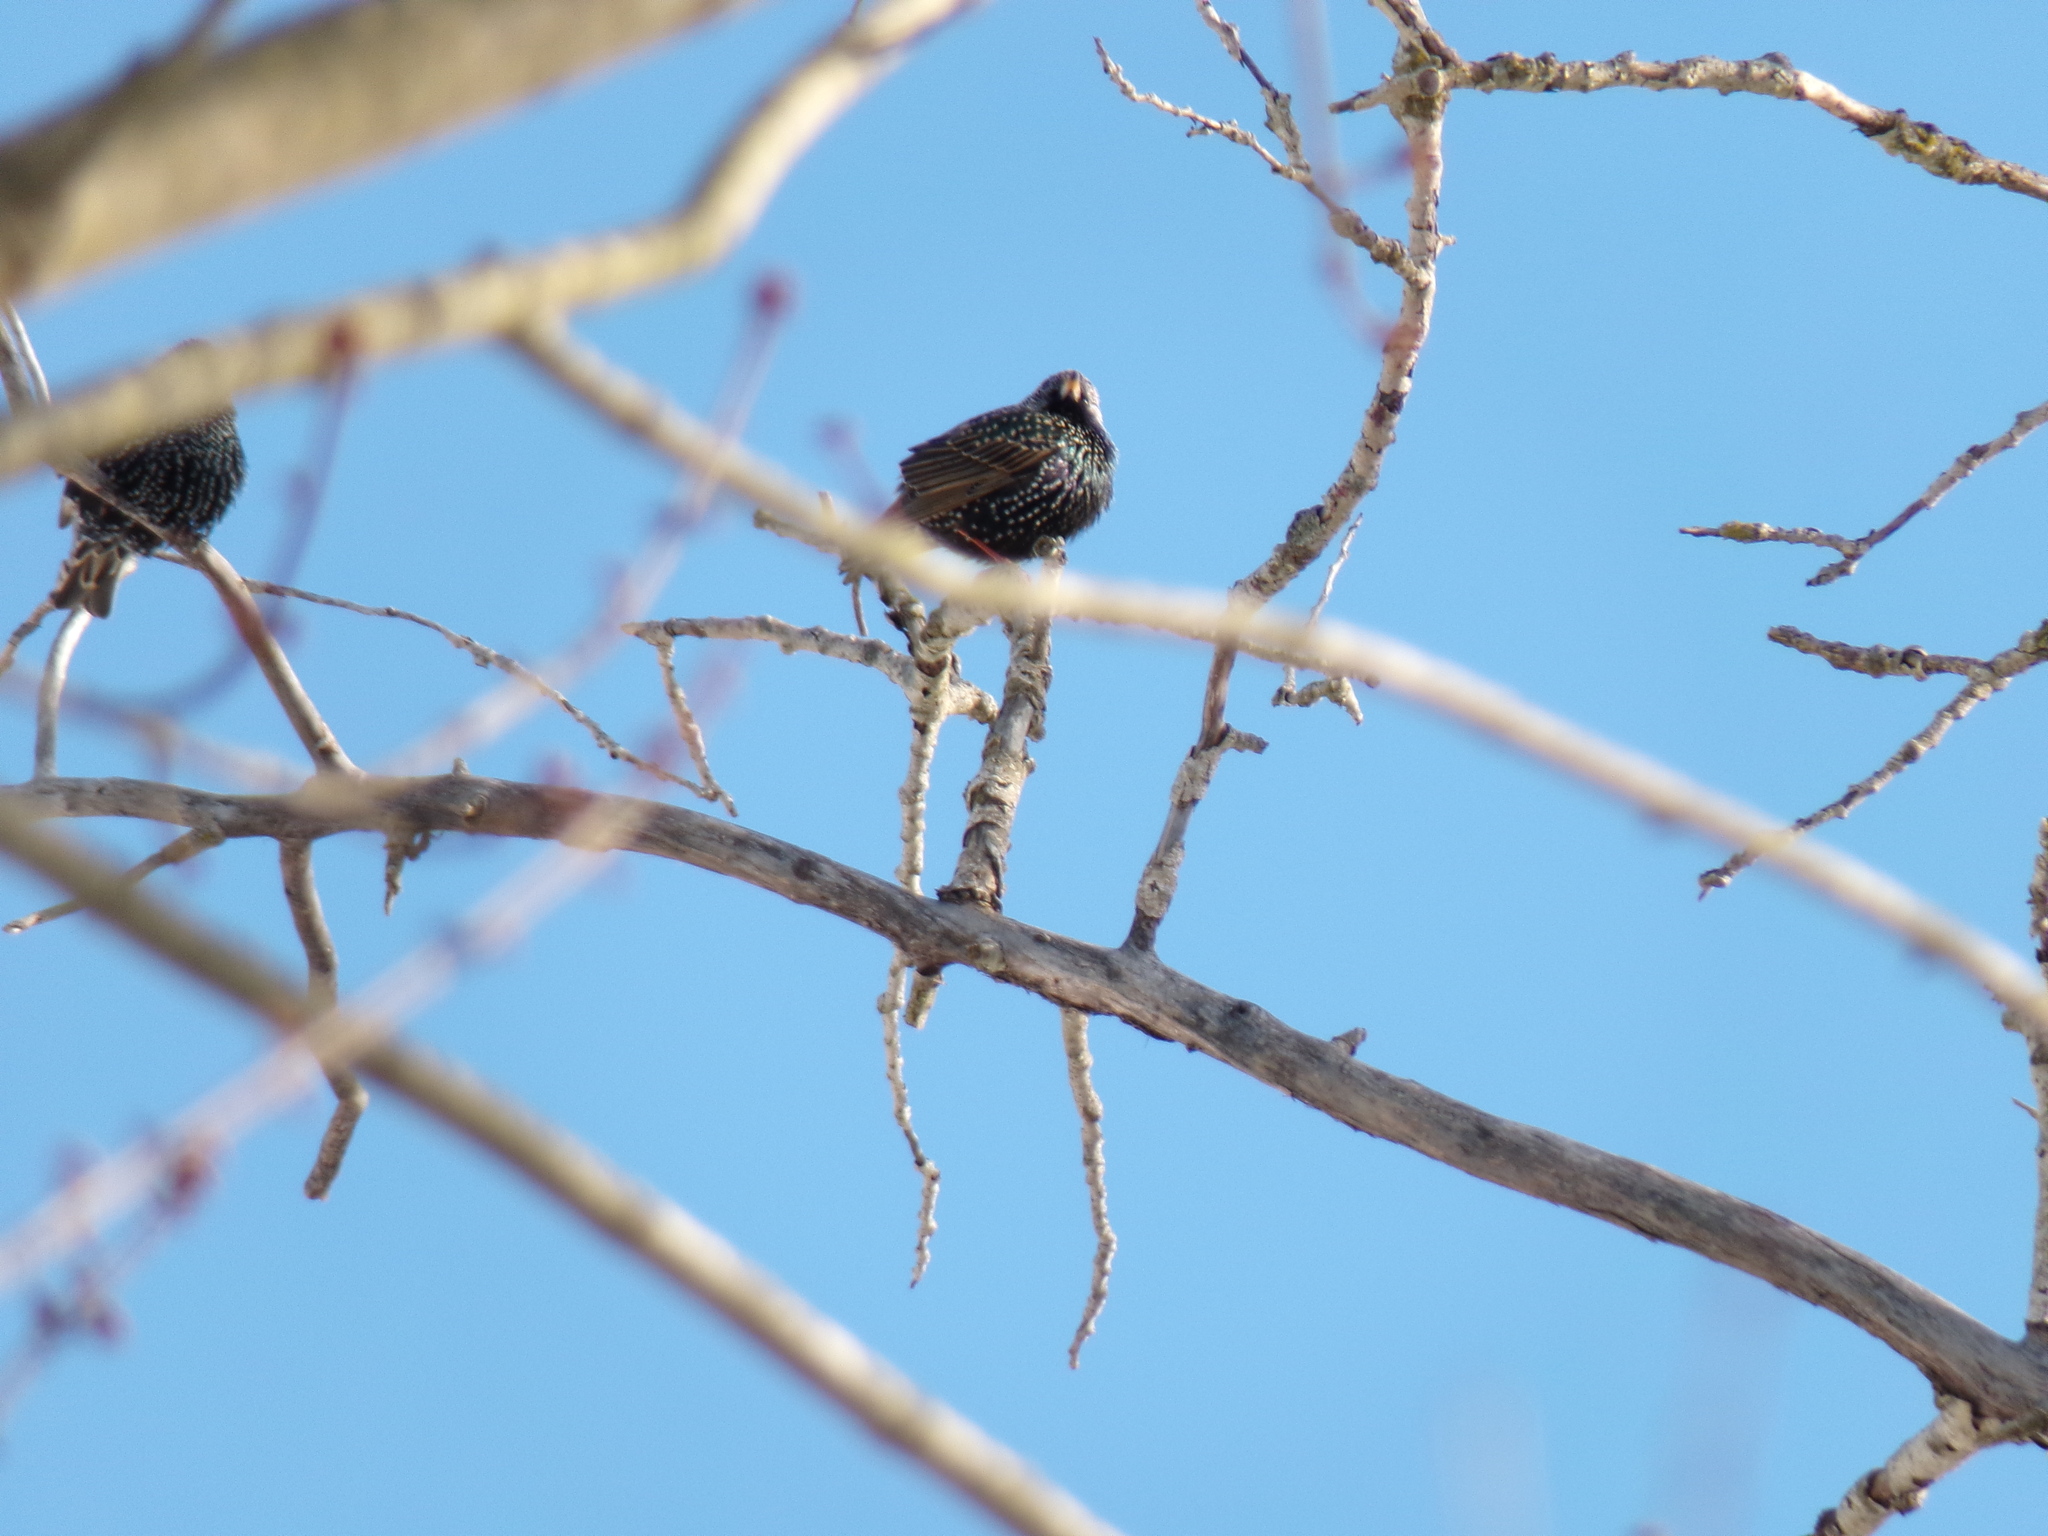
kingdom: Animalia
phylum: Chordata
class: Aves
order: Passeriformes
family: Sturnidae
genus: Sturnus
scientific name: Sturnus vulgaris
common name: Common starling
